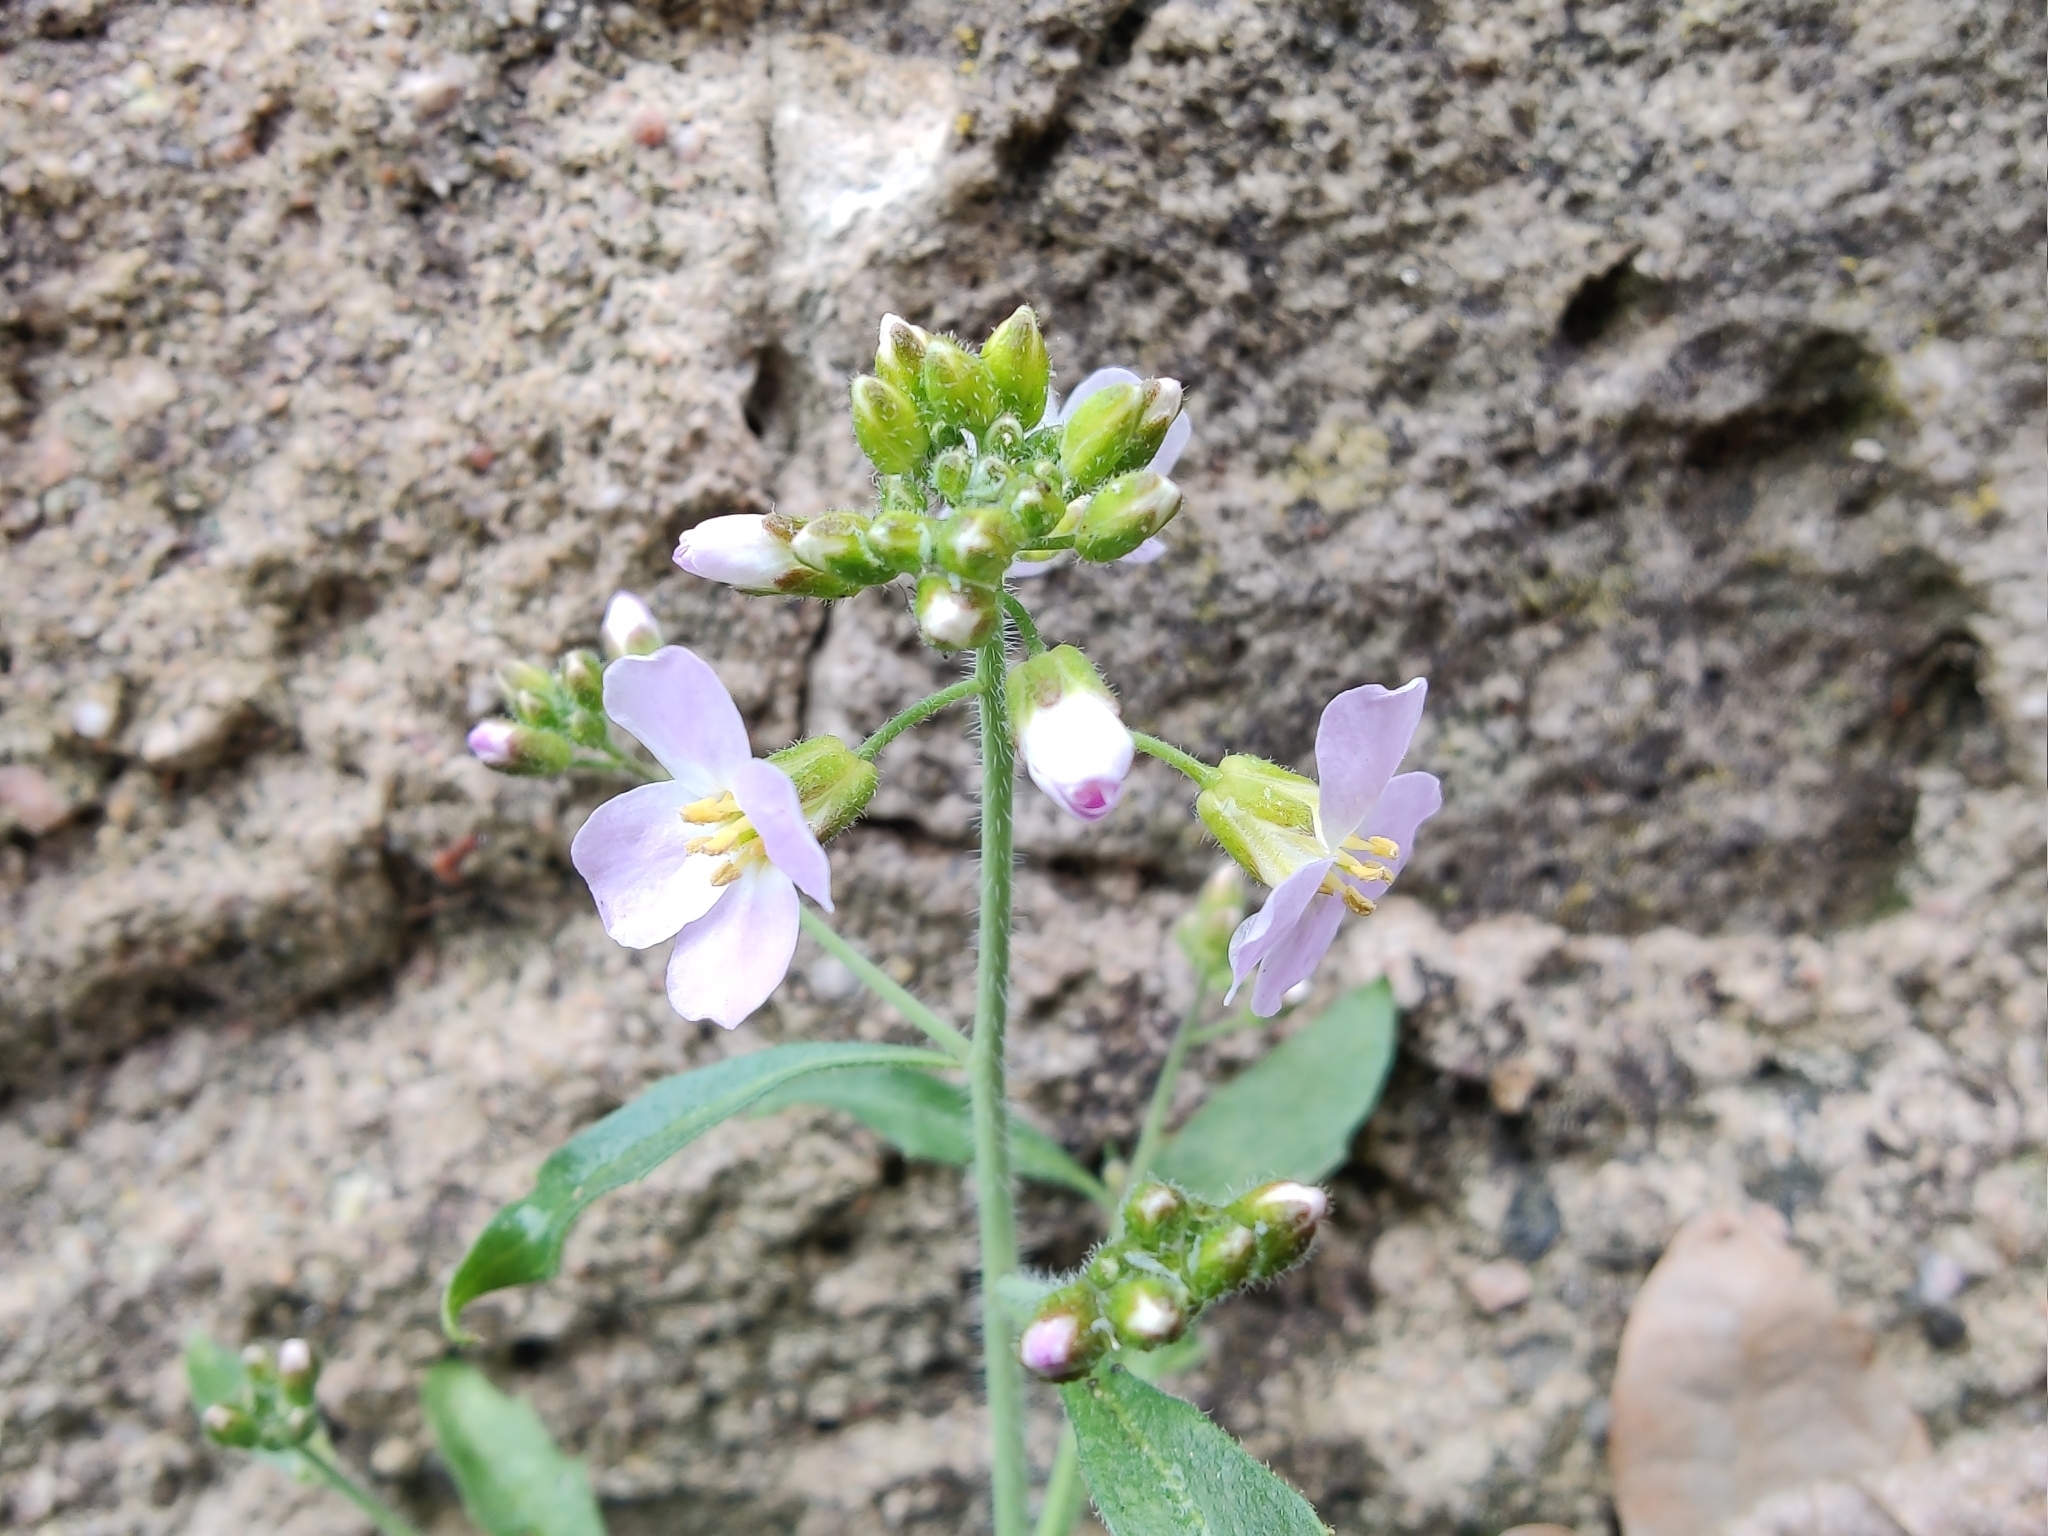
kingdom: Plantae
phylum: Tracheophyta
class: Magnoliopsida
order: Brassicales
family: Brassicaceae
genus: Arabidopsis
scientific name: Arabidopsis arenosa
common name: Sand rock-cress
